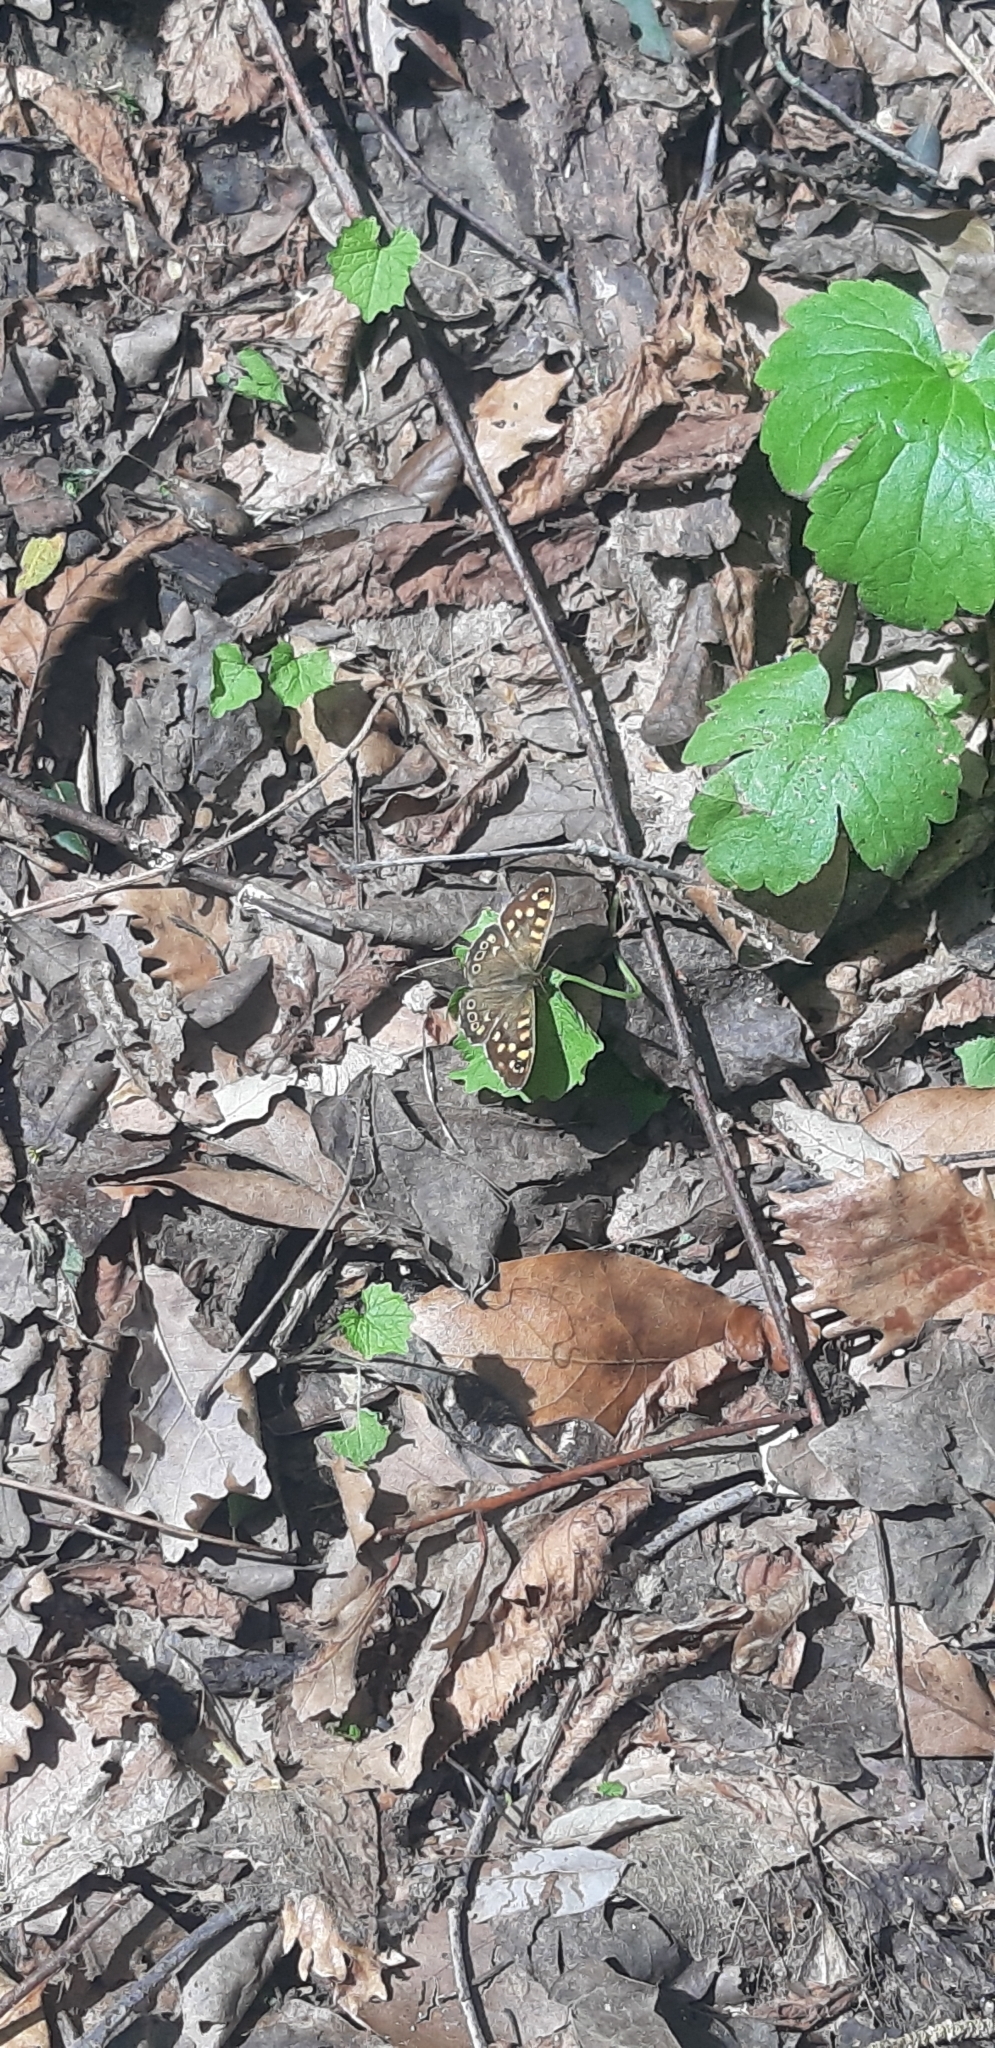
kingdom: Animalia
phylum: Arthropoda
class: Insecta
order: Lepidoptera
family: Nymphalidae
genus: Pararge
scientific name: Pararge aegeria
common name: Speckled wood
